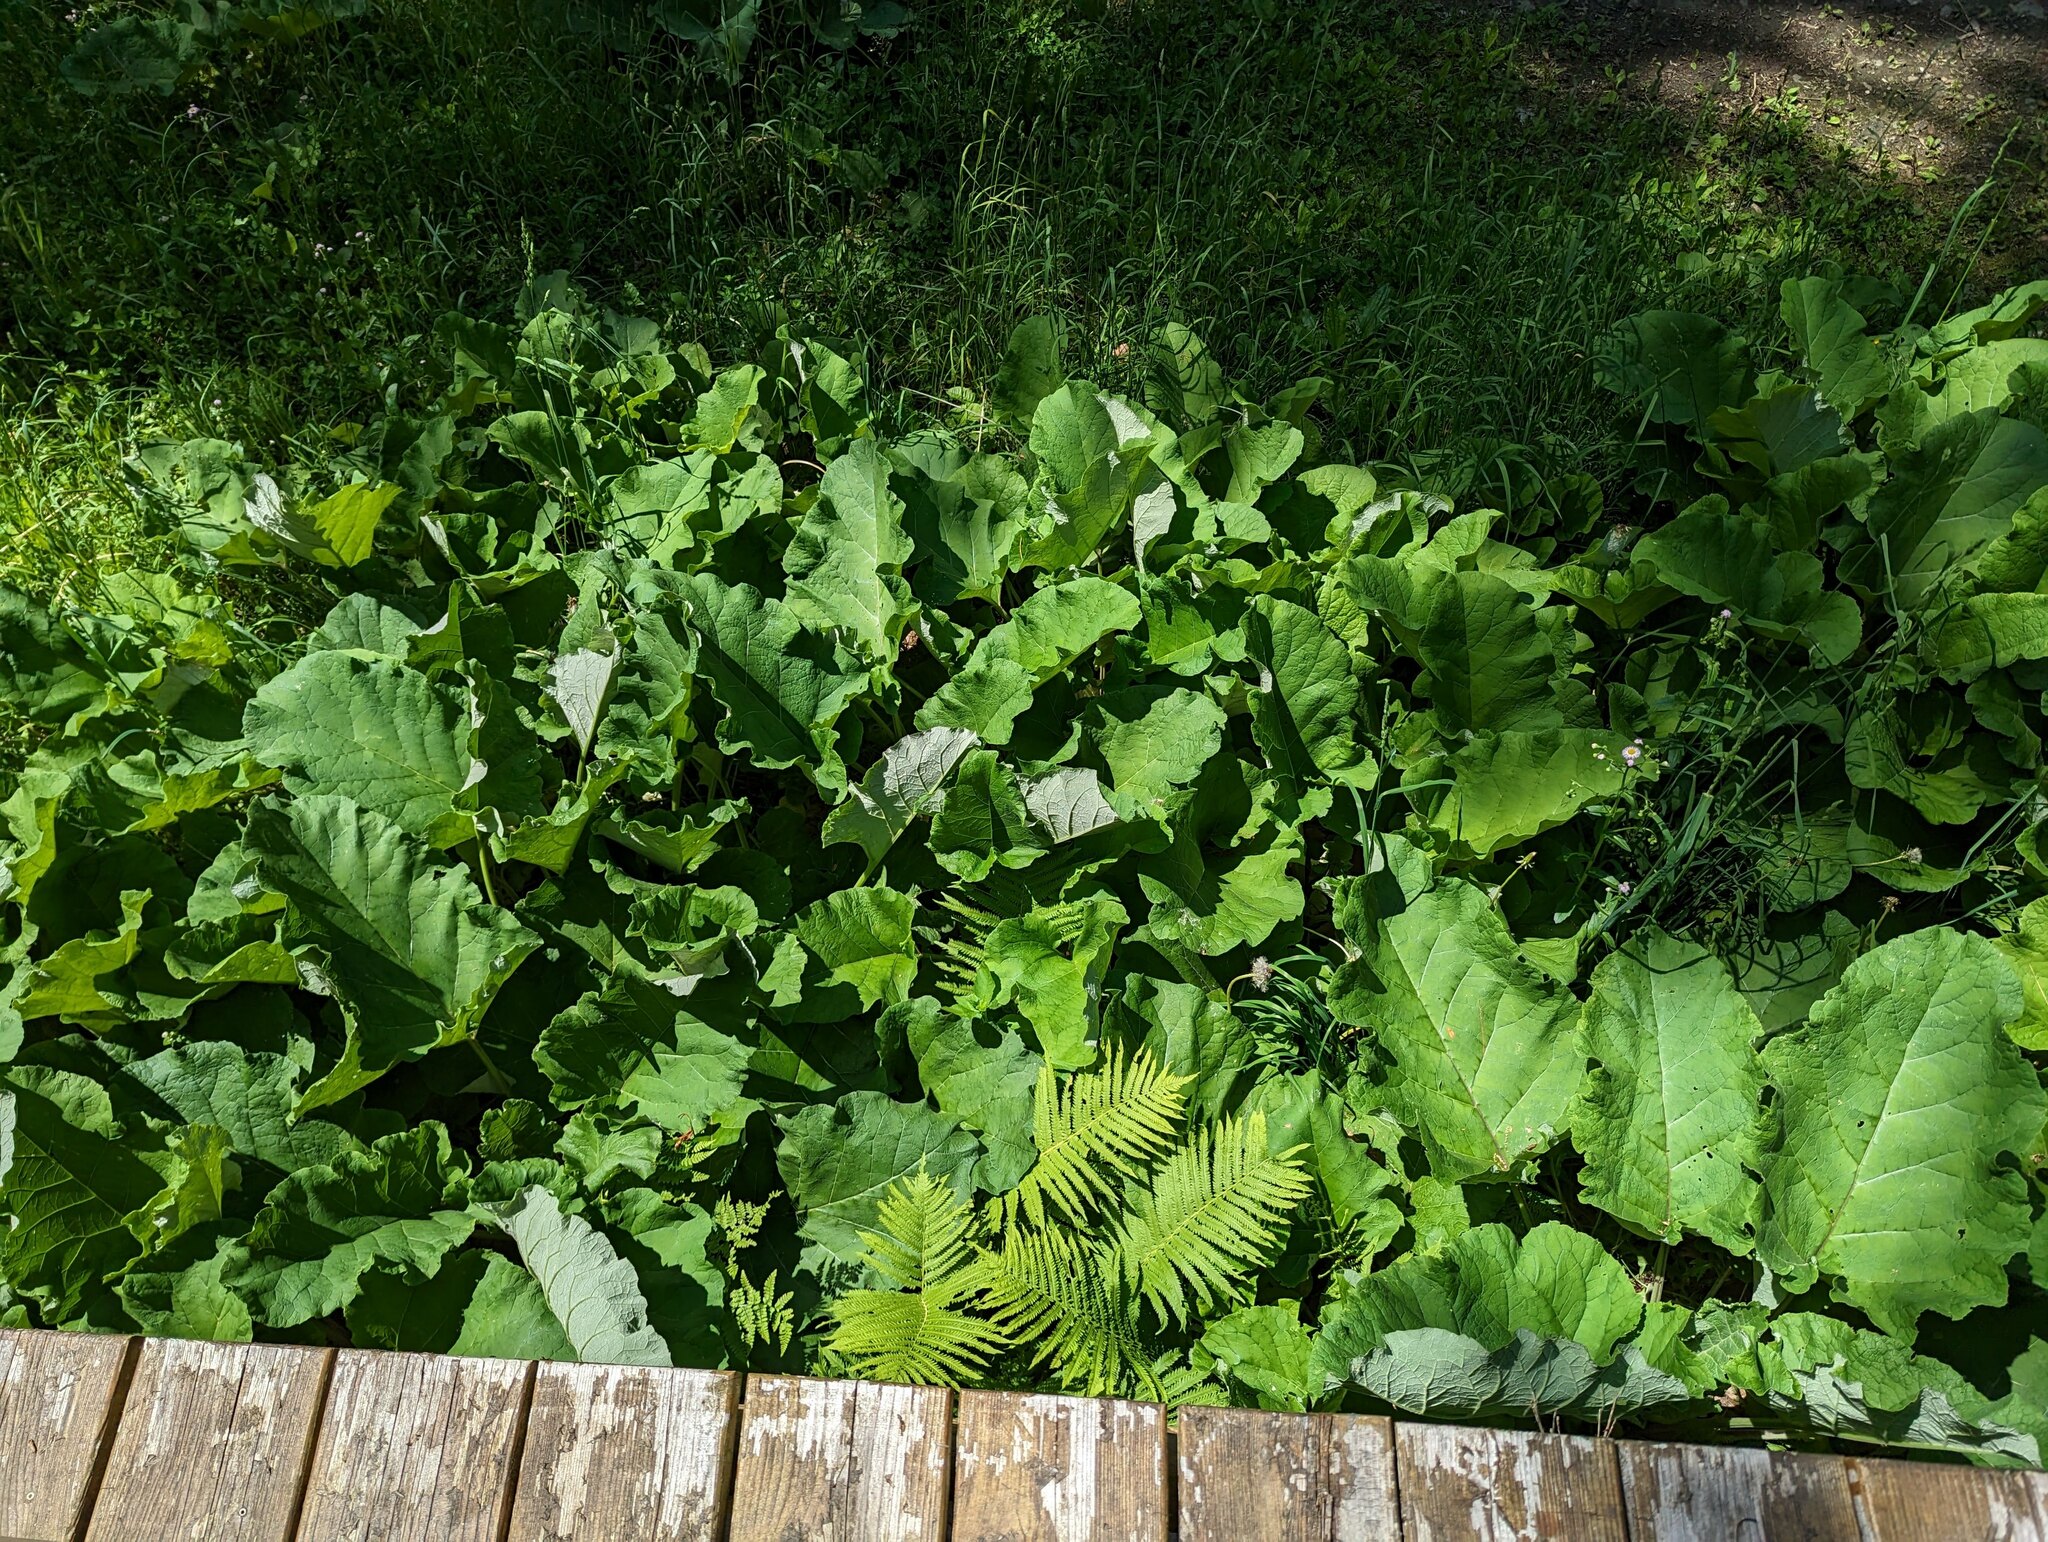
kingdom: Plantae
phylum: Tracheophyta
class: Magnoliopsida
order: Asterales
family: Asteraceae
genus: Arctium
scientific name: Arctium
